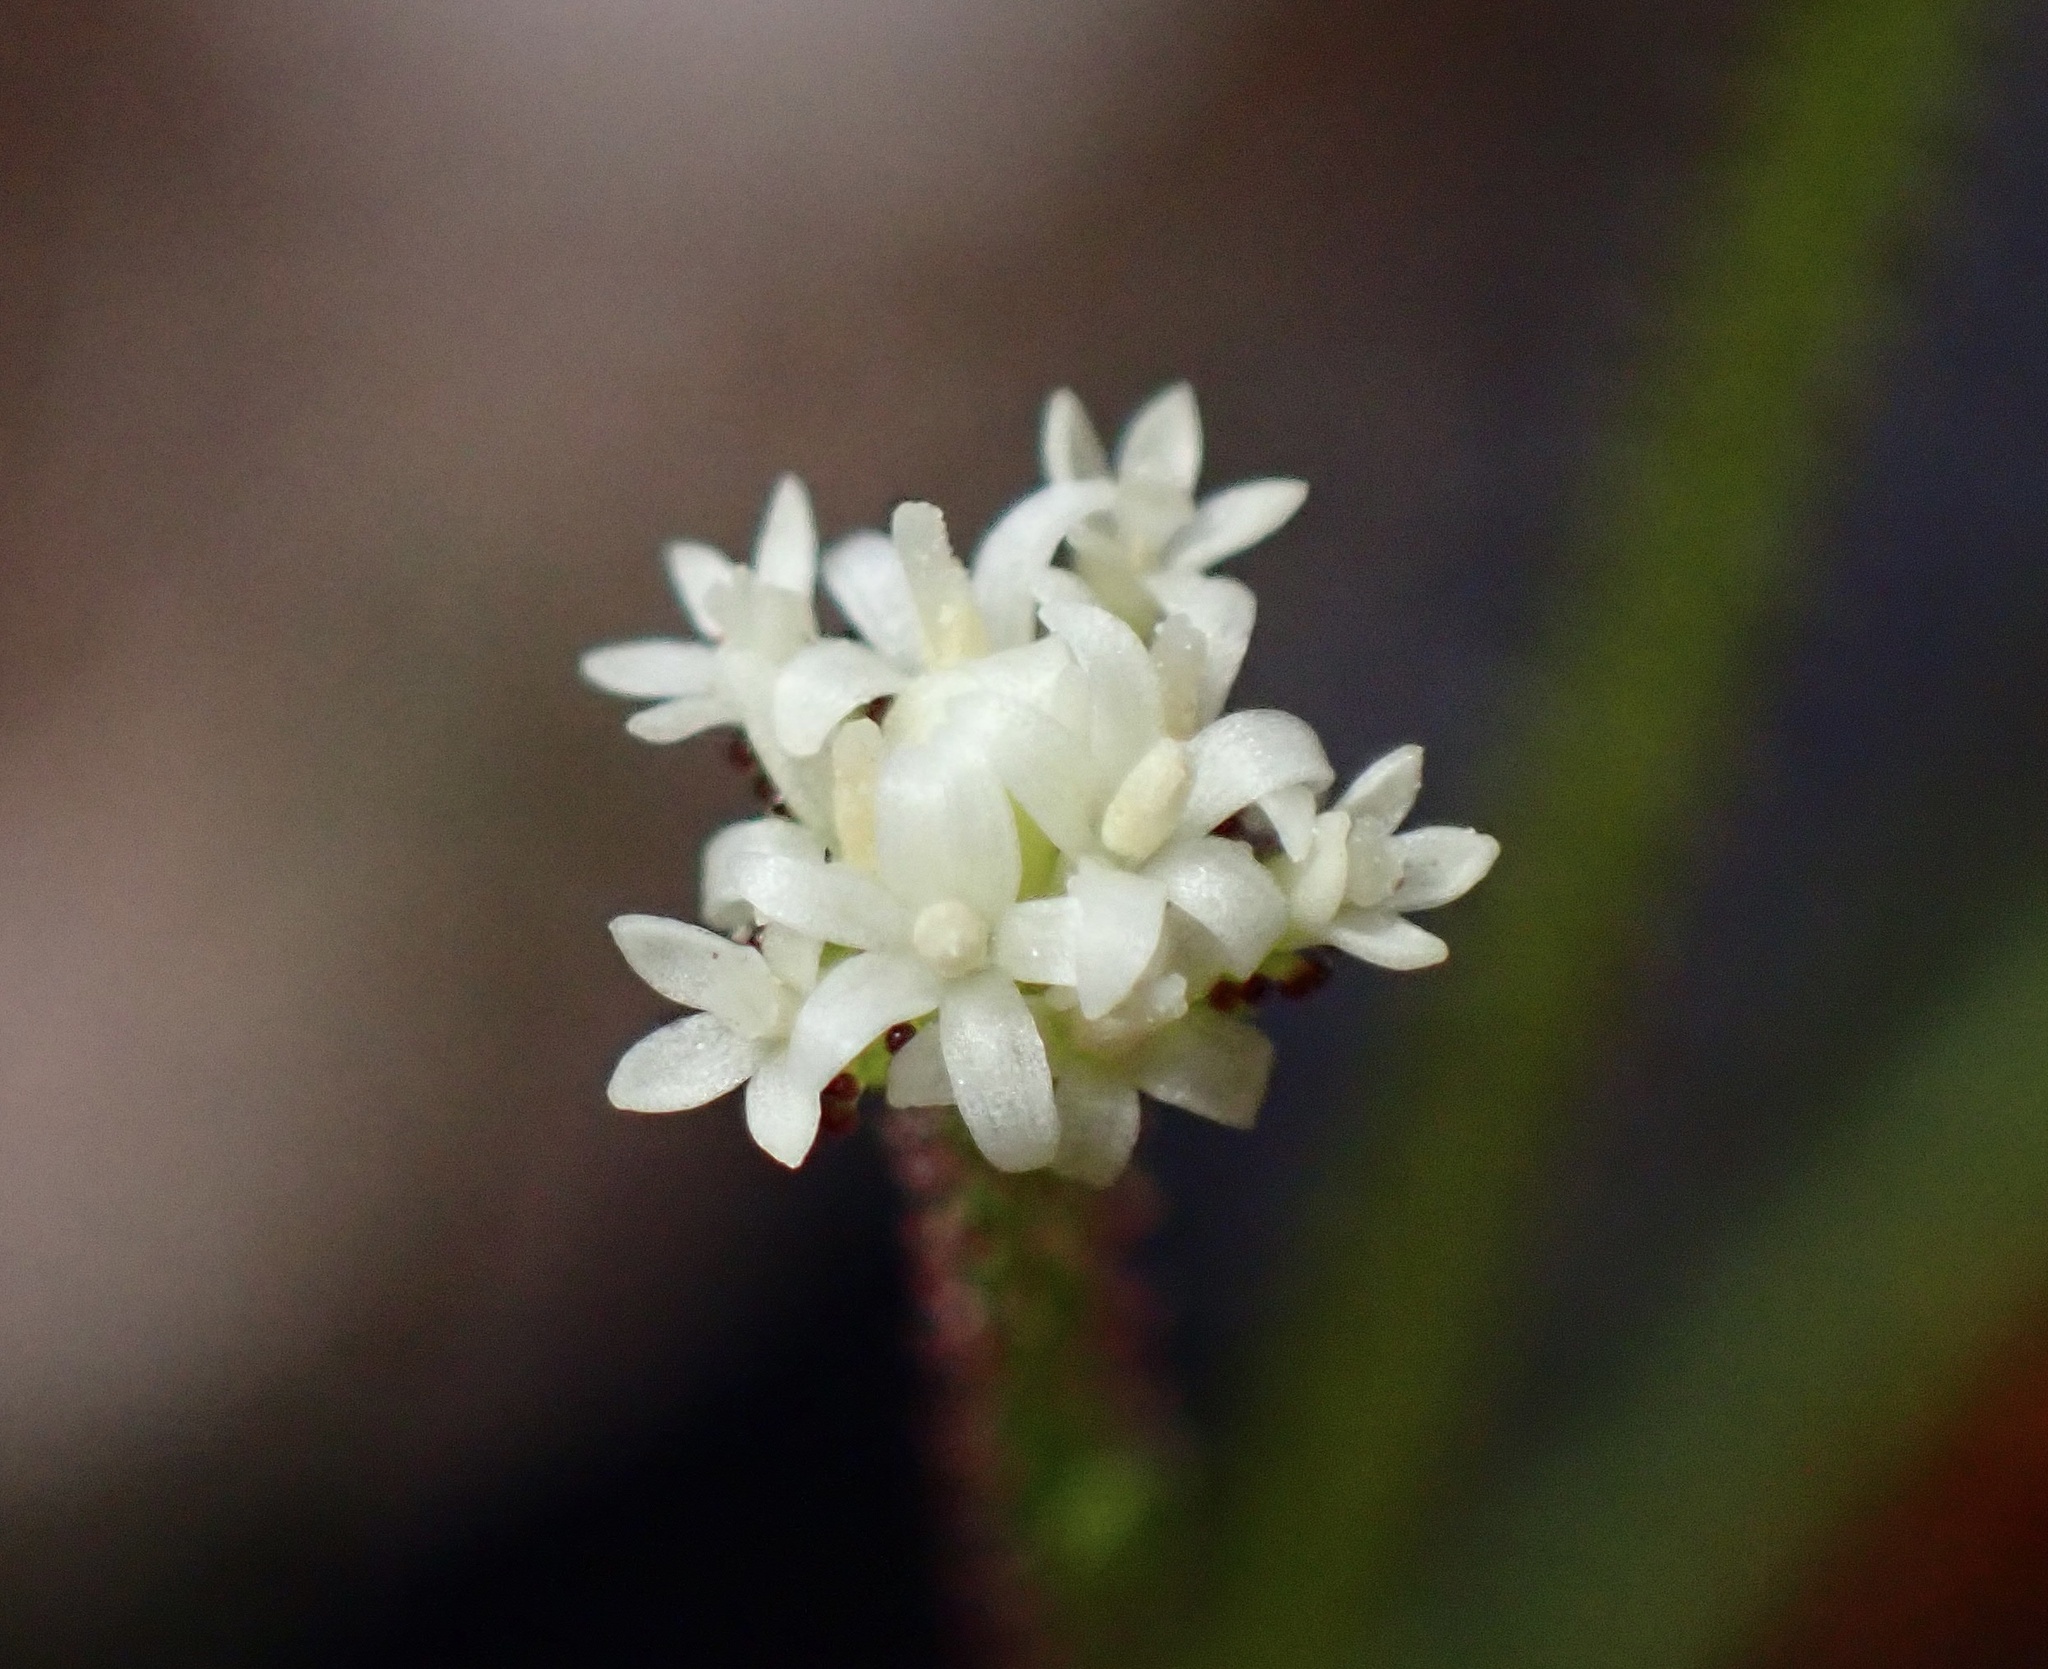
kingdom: Plantae
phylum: Tracheophyta
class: Magnoliopsida
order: Asterales
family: Asteraceae
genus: Adenocaulon
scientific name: Adenocaulon bicolor
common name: Trailplant
